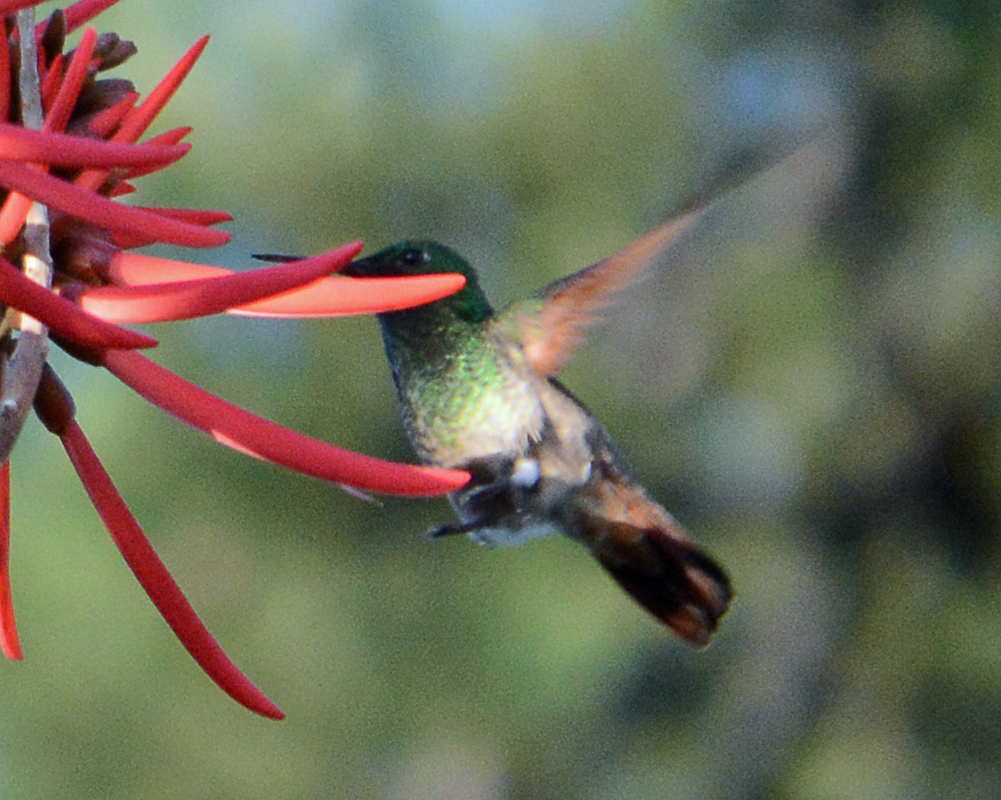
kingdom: Animalia
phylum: Chordata
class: Aves
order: Apodiformes
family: Trochilidae
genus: Saucerottia
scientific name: Saucerottia beryllina
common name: Berylline hummingbird
